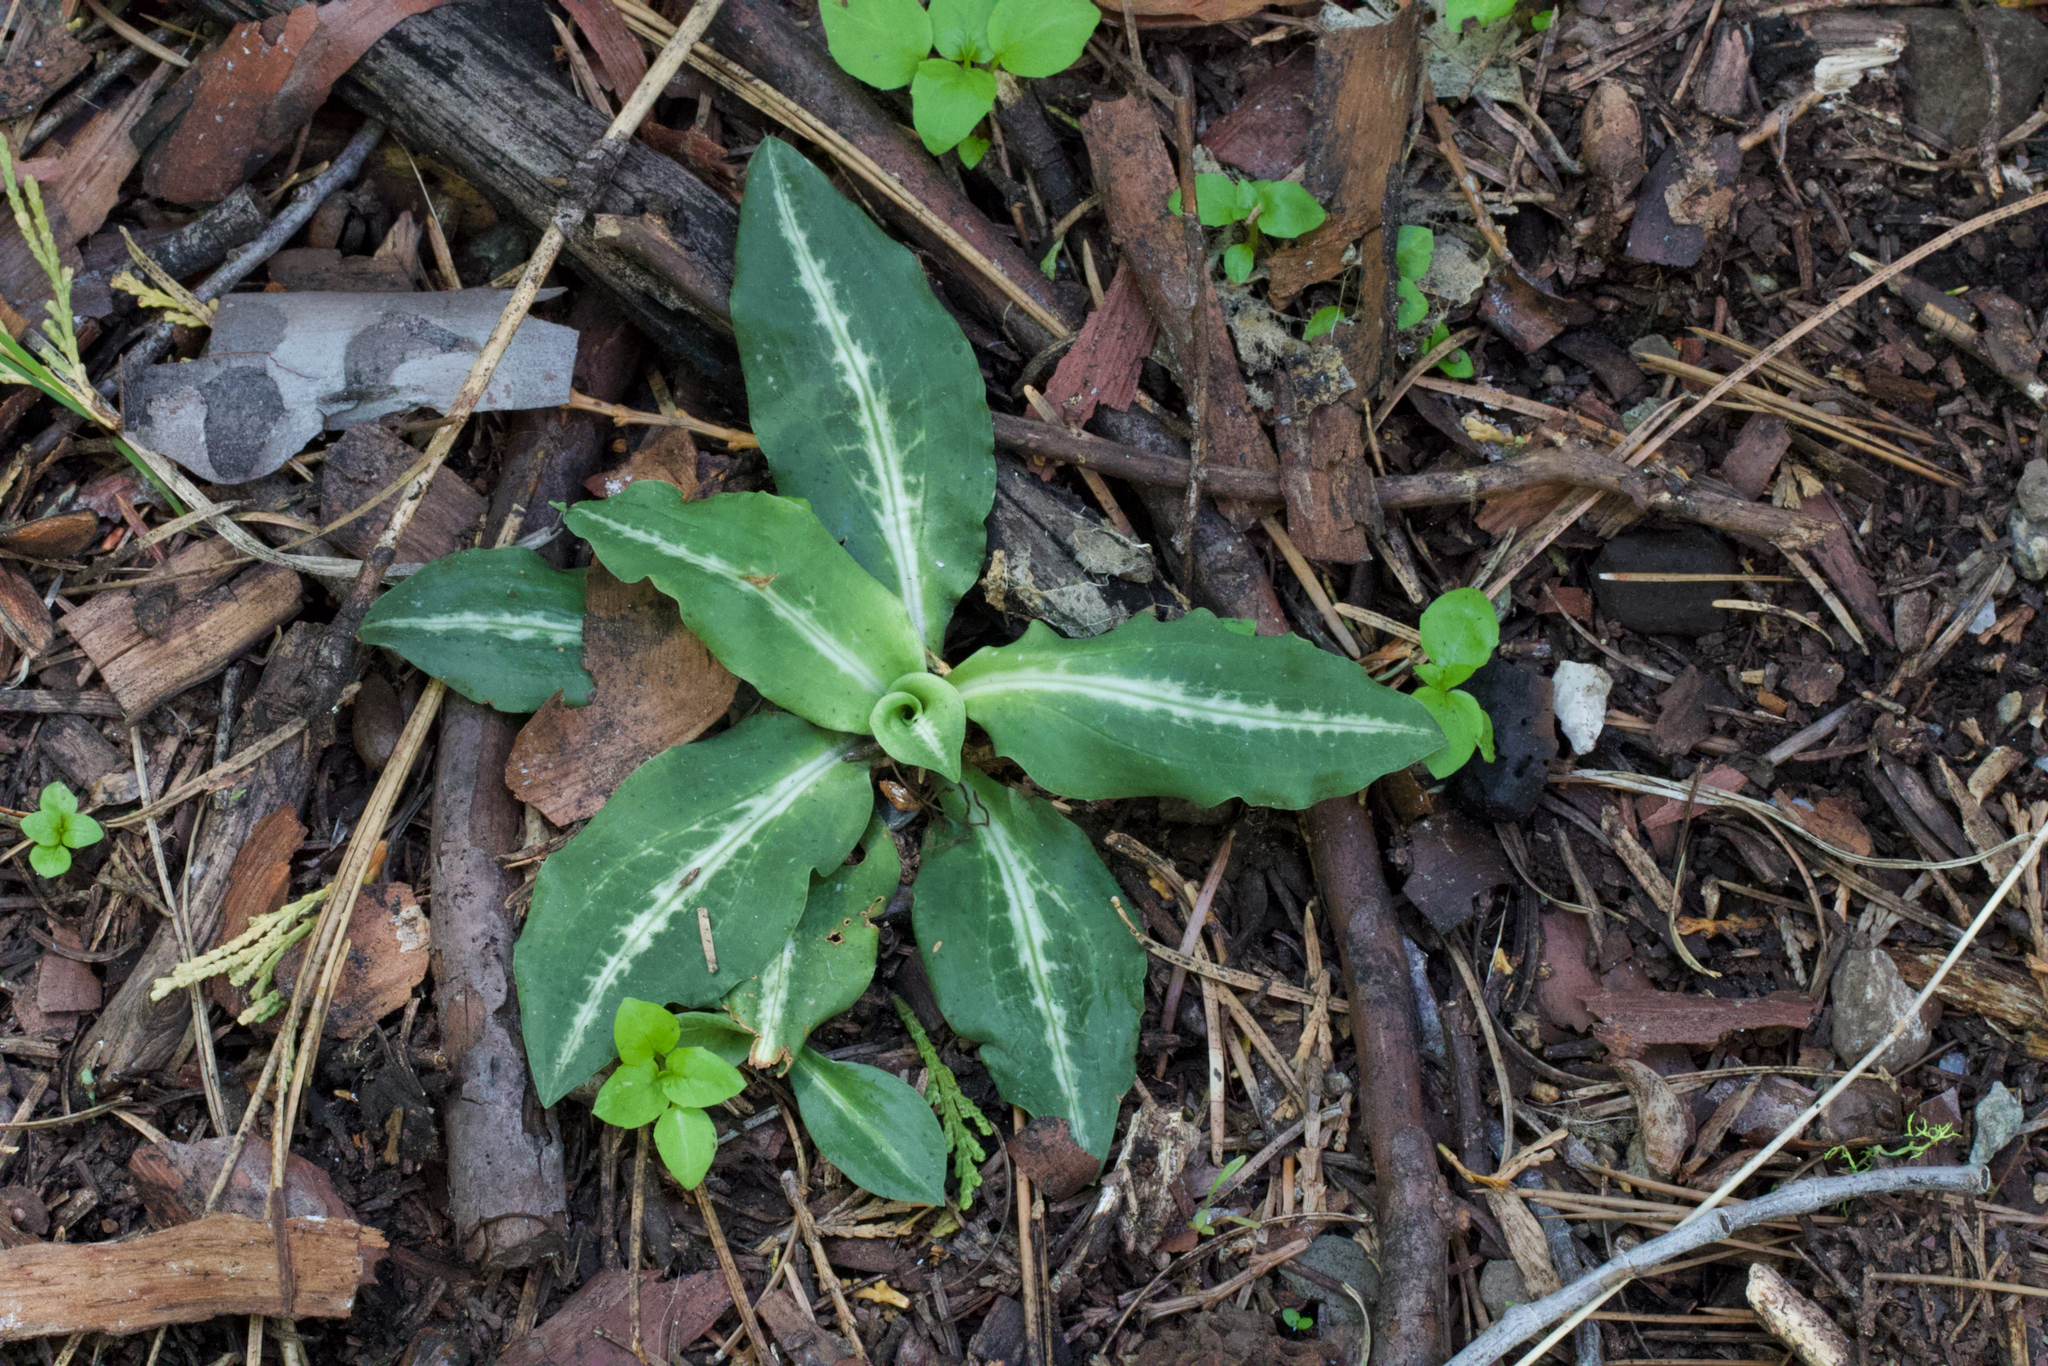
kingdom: Plantae
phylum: Tracheophyta
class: Liliopsida
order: Asparagales
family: Orchidaceae
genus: Goodyera
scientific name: Goodyera oblongifolia
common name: Giant rattlesnake-plantain
